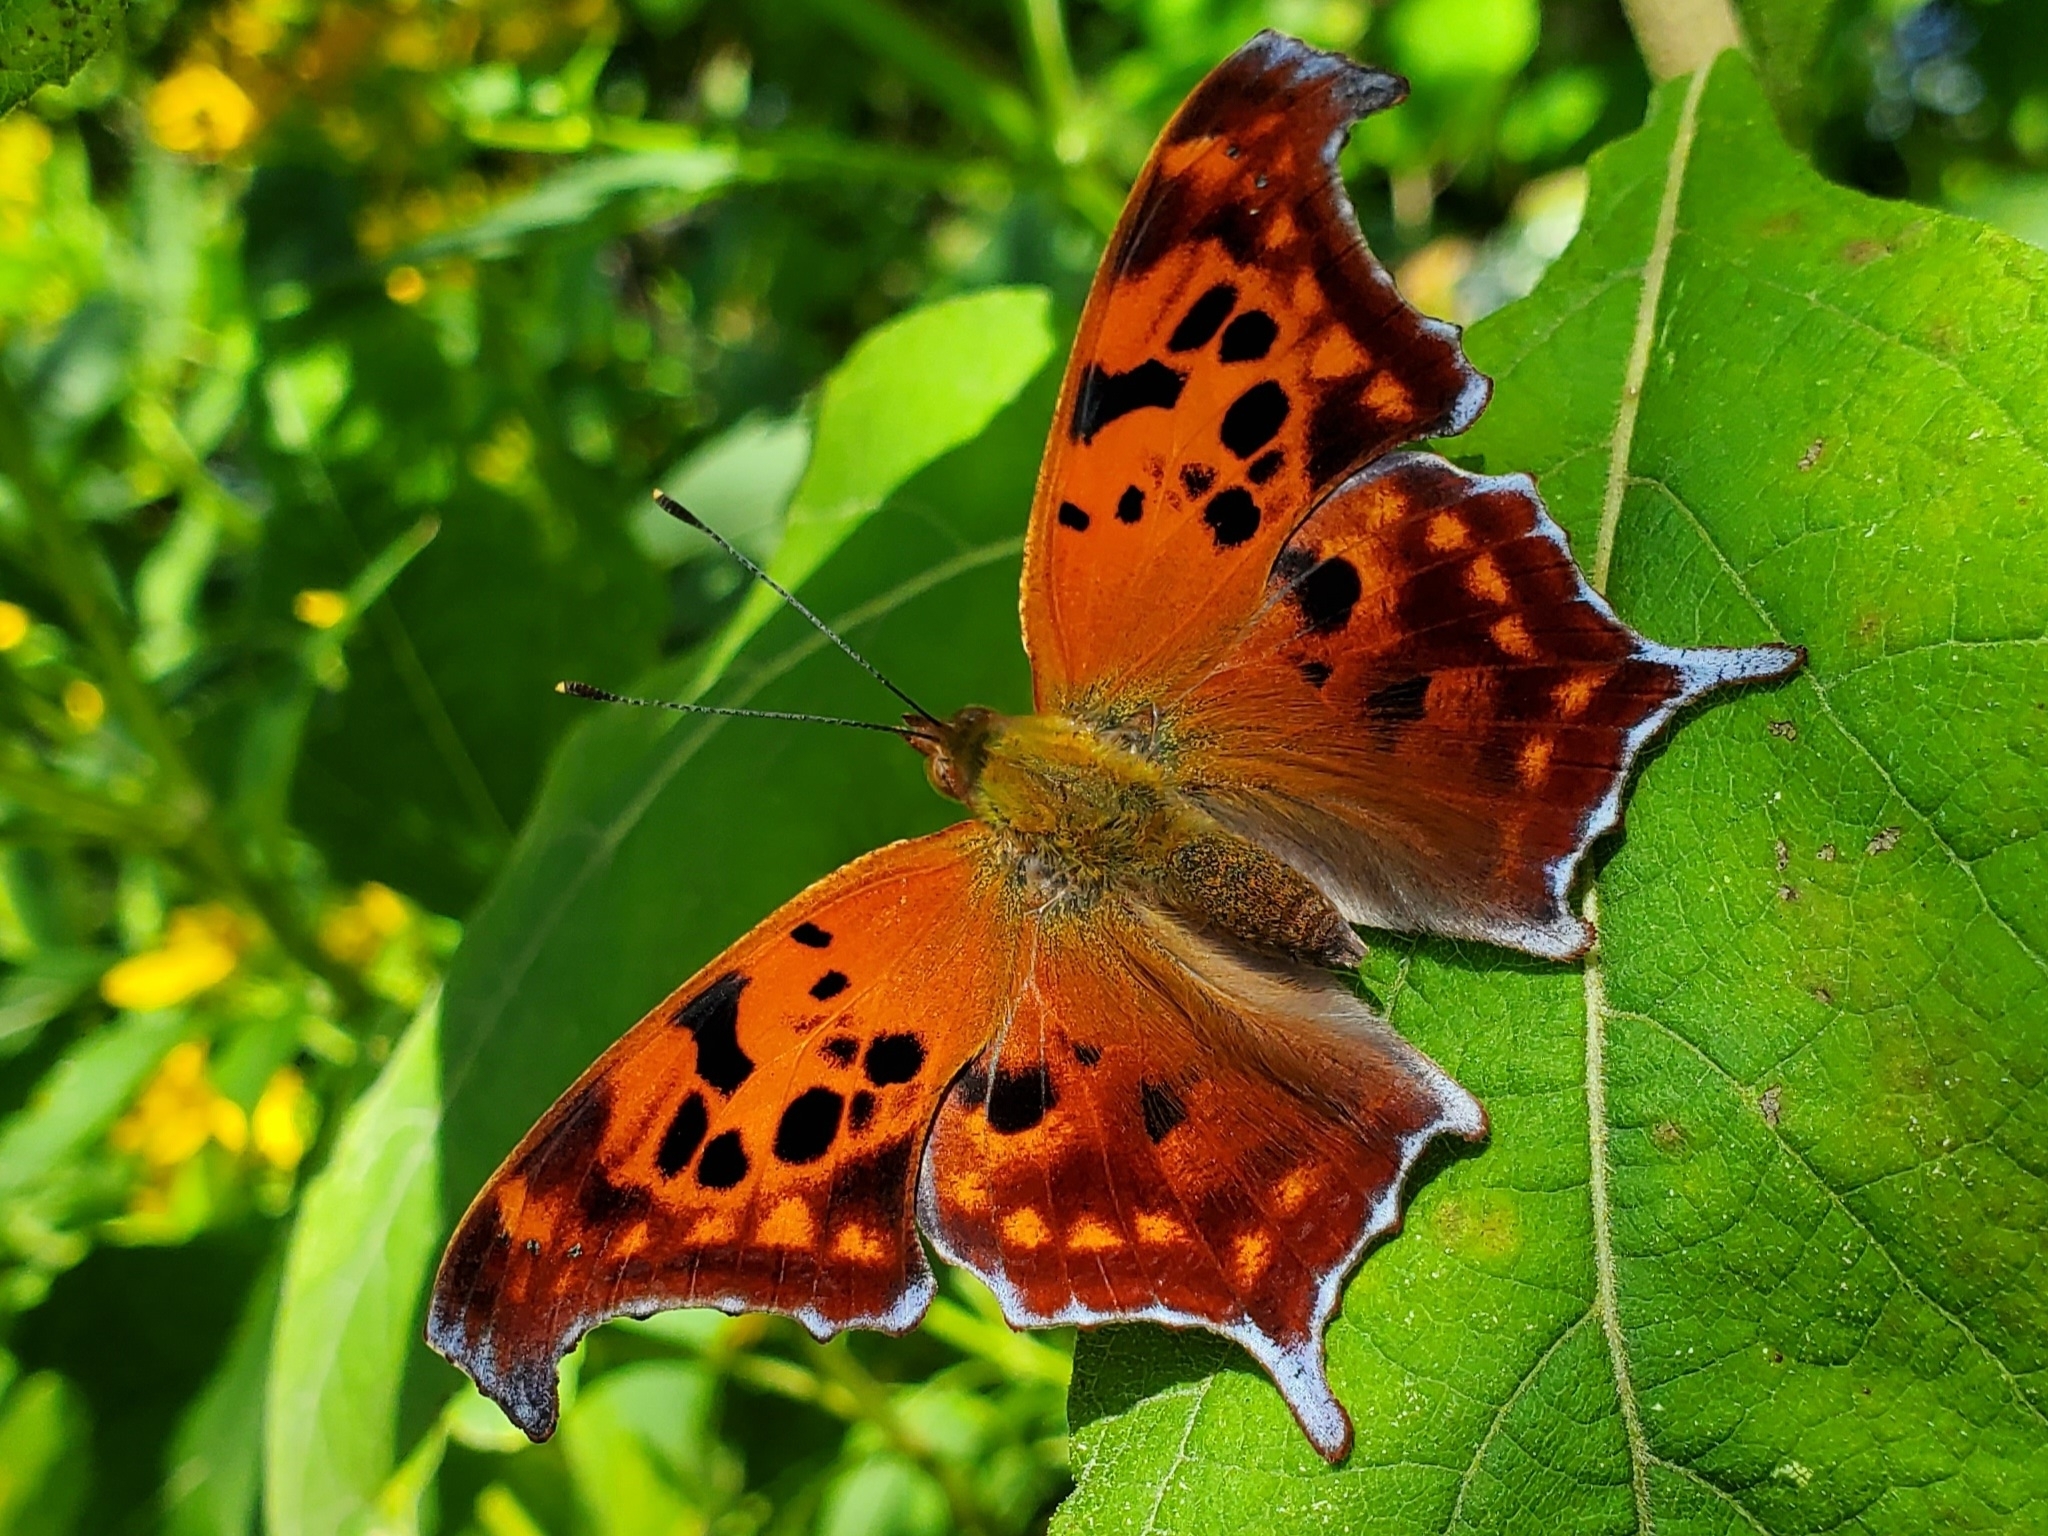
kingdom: Animalia
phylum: Arthropoda
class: Insecta
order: Lepidoptera
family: Nymphalidae
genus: Polygonia
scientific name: Polygonia interrogationis
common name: Question mark
